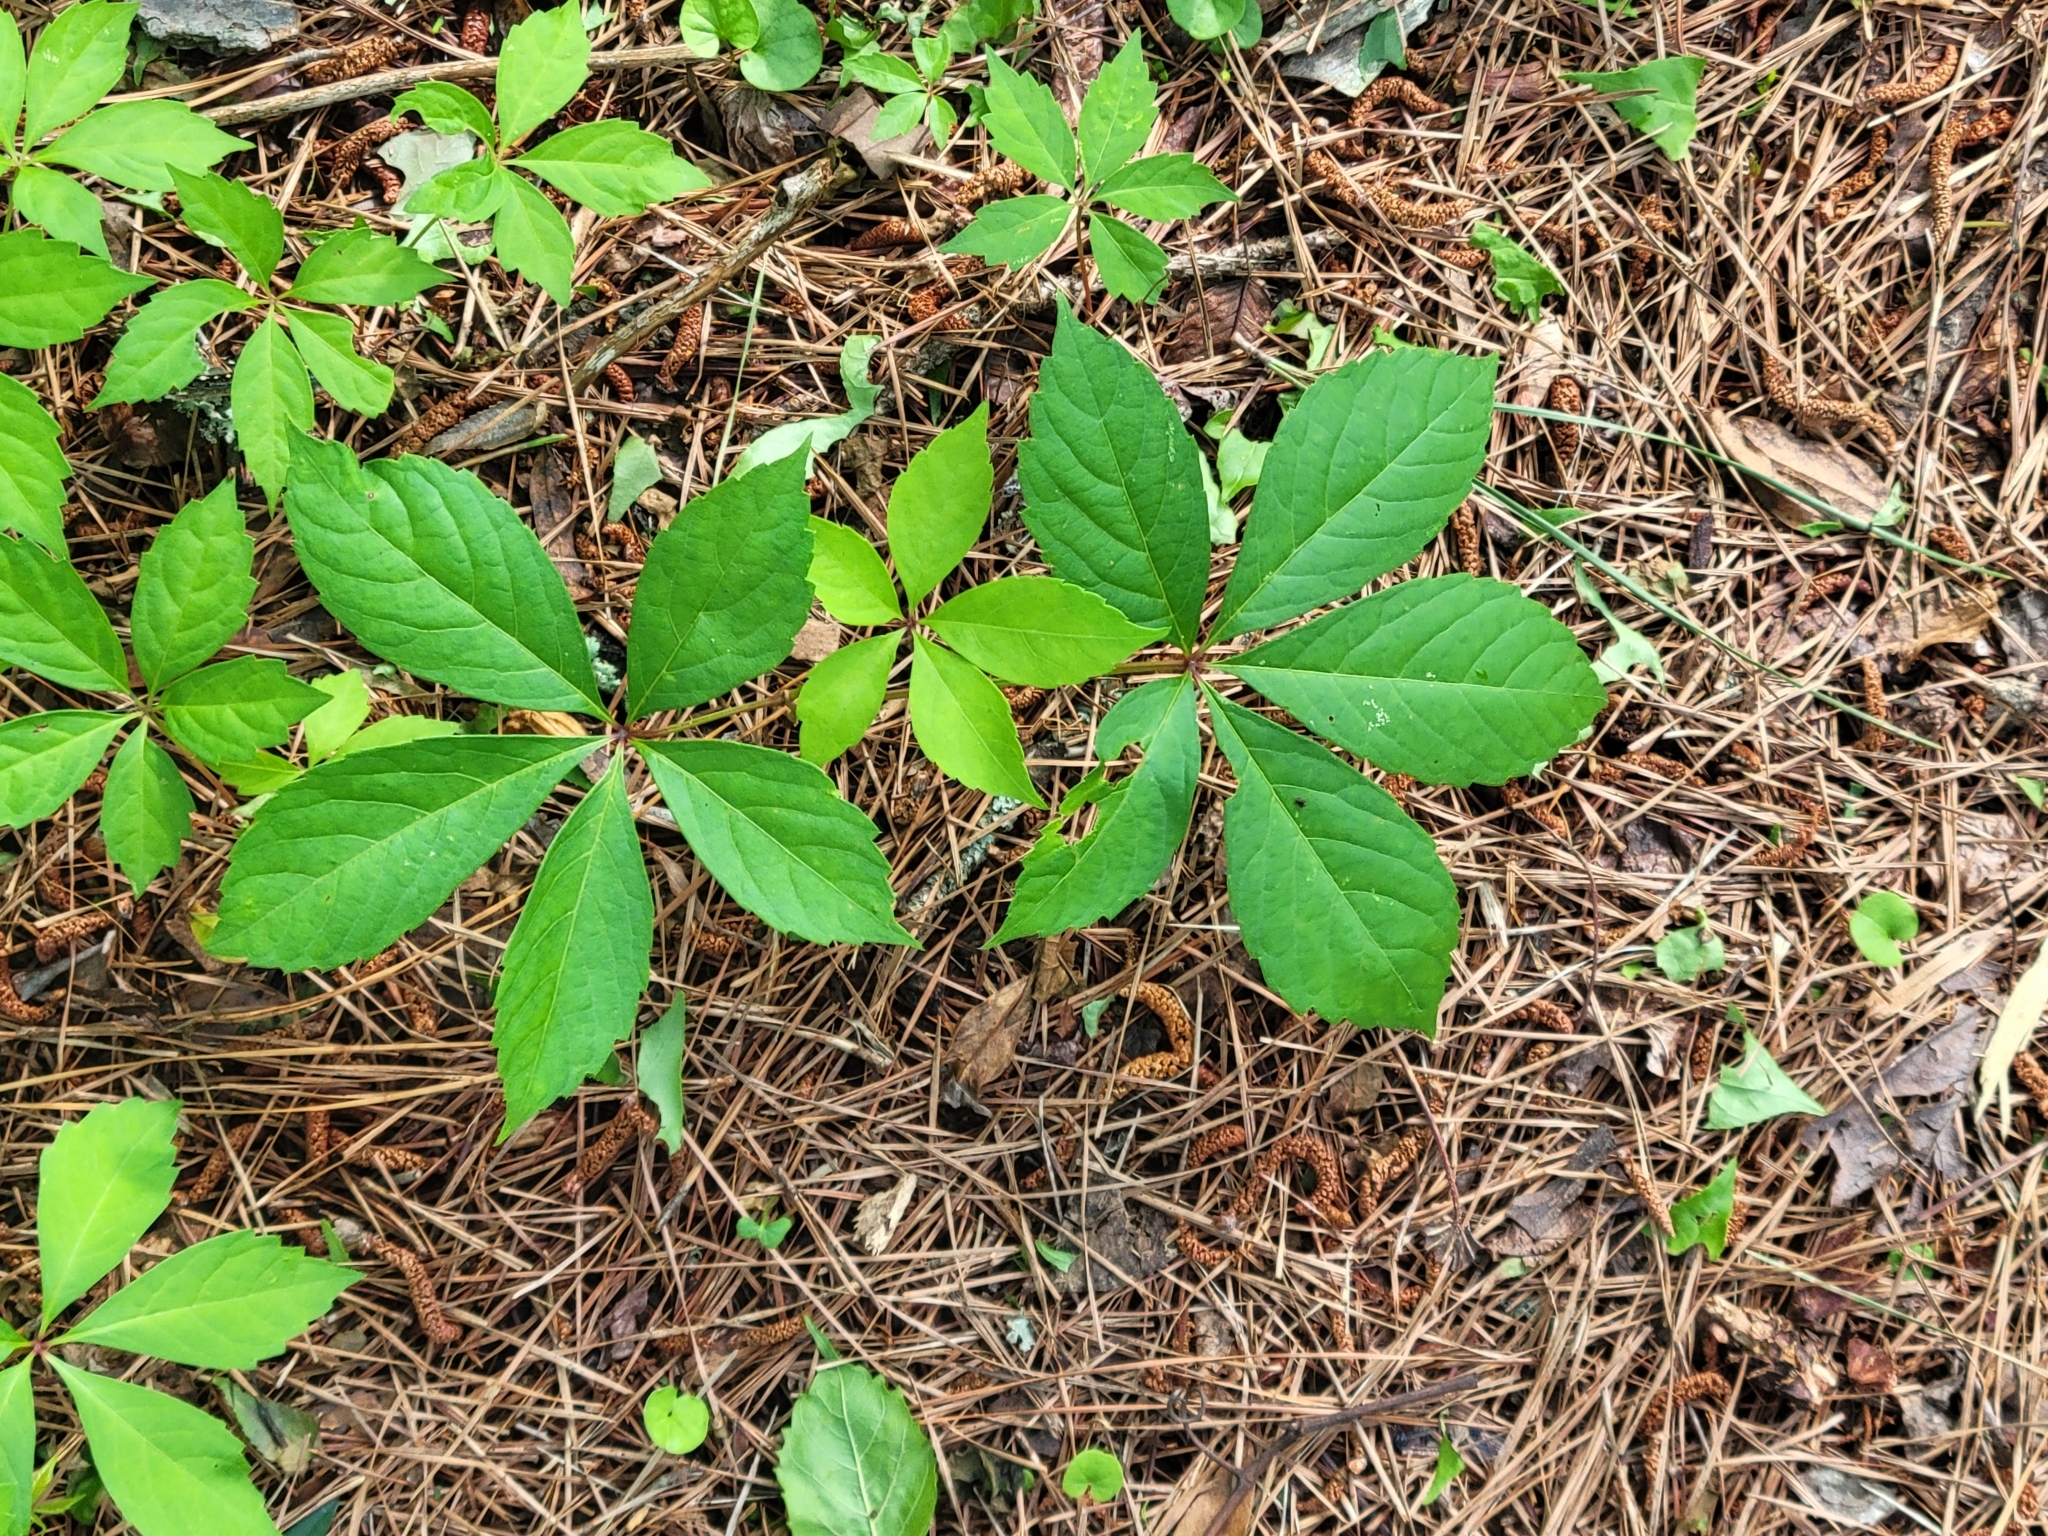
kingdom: Plantae
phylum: Tracheophyta
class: Magnoliopsida
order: Vitales
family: Vitaceae
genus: Parthenocissus
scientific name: Parthenocissus quinquefolia
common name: Virginia-creeper
